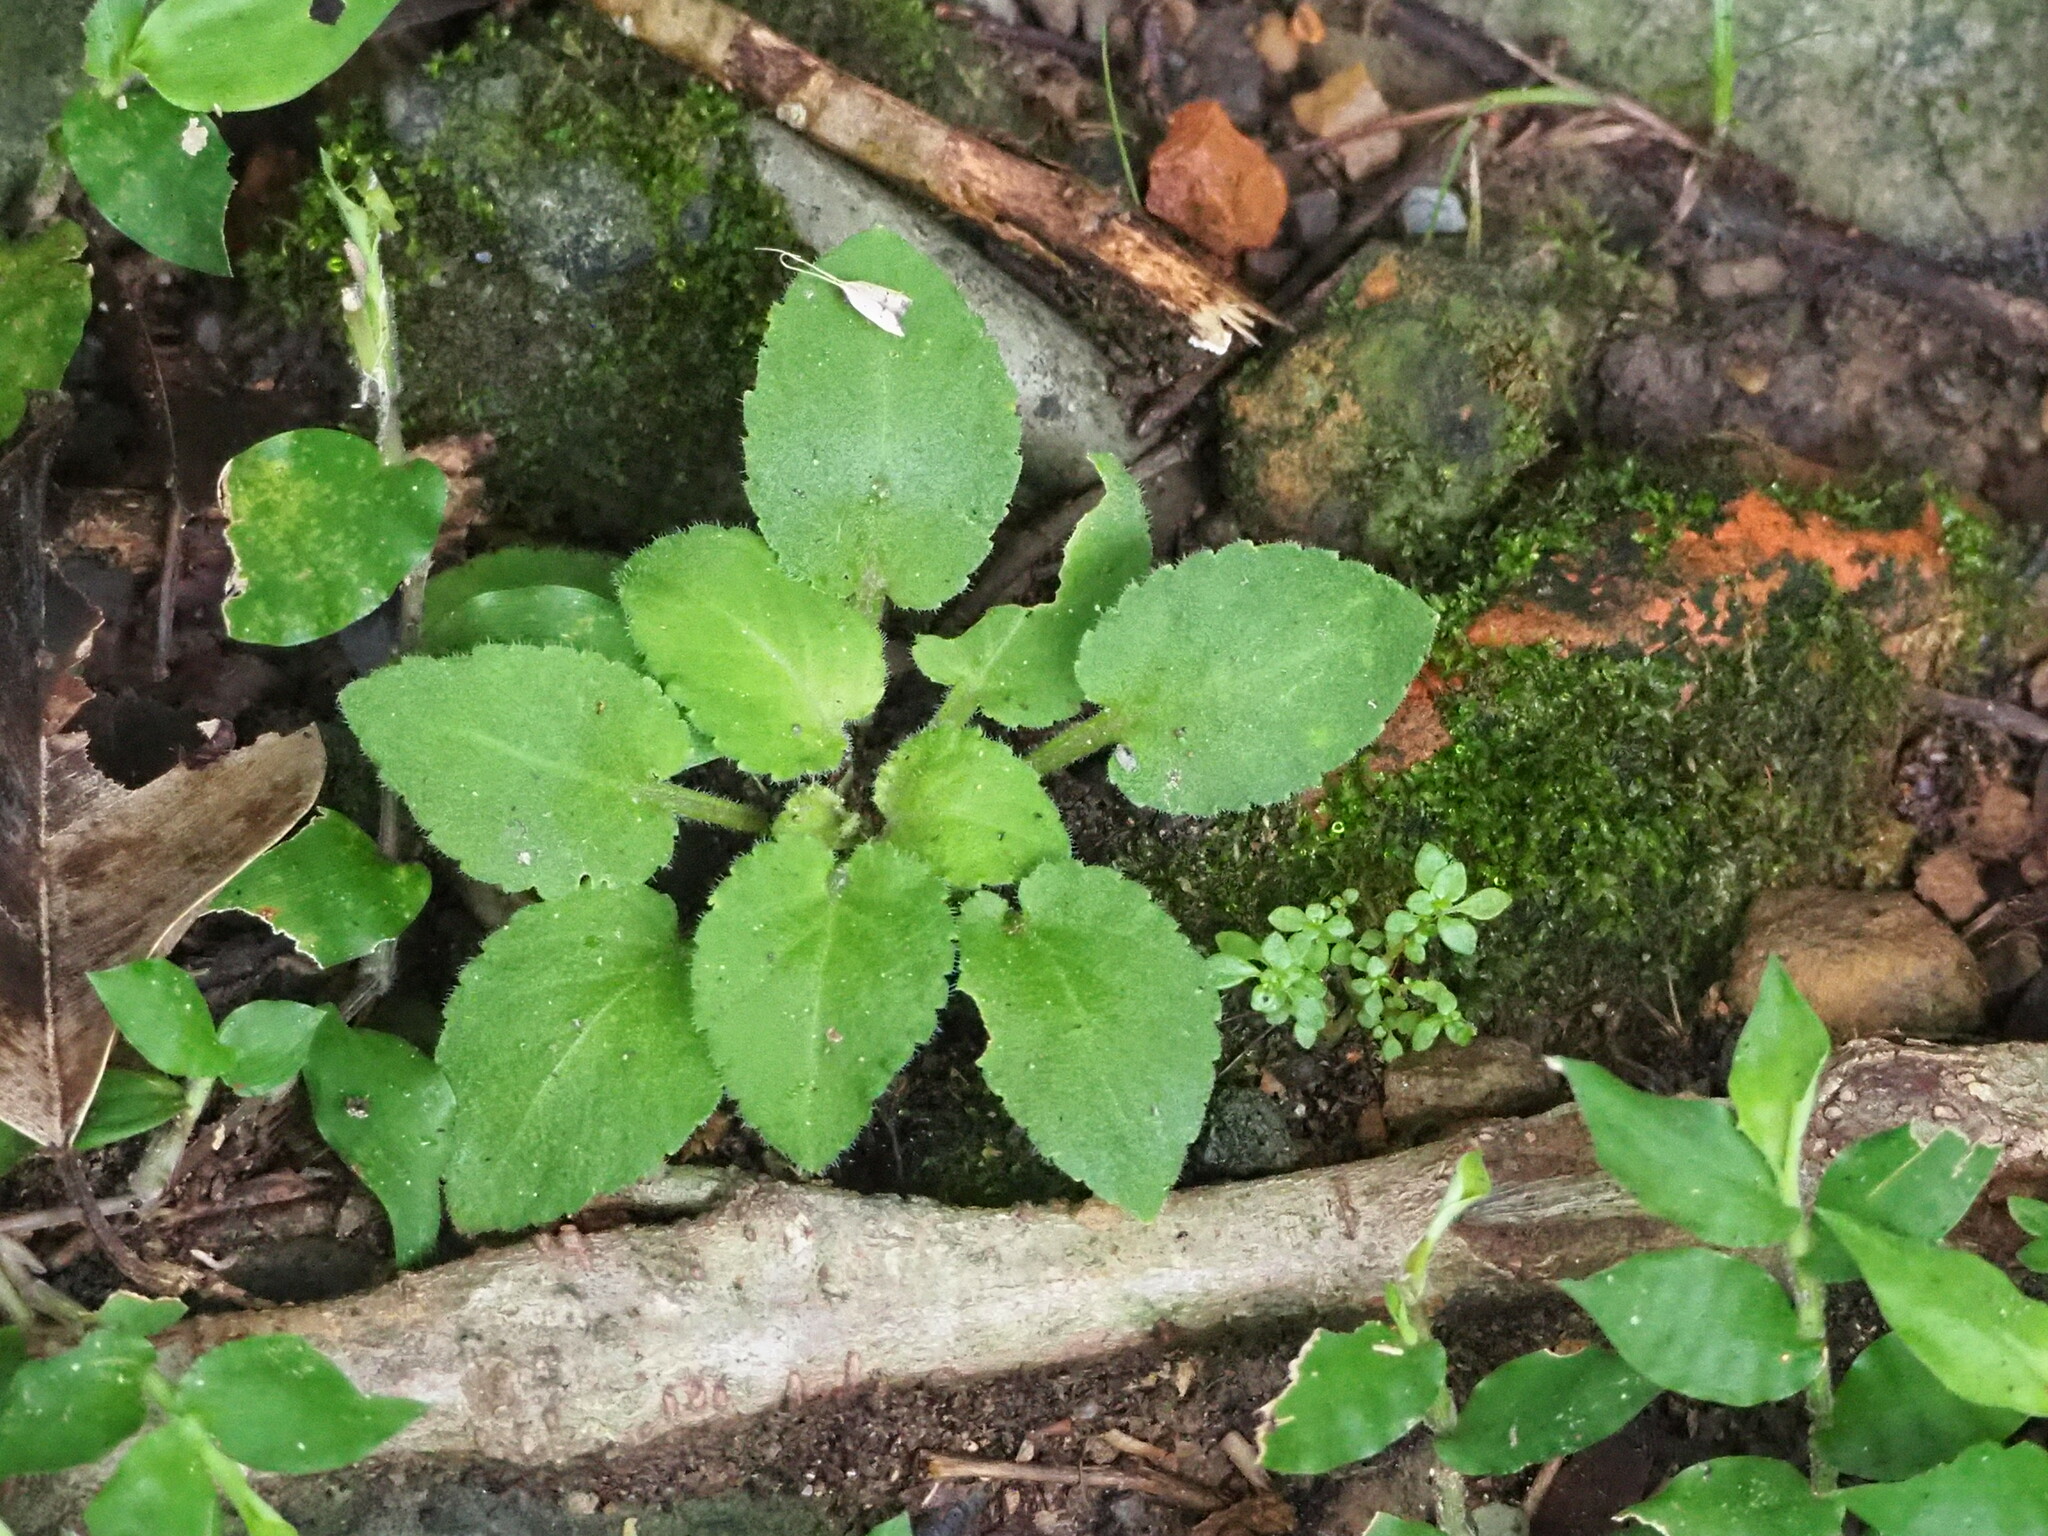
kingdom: Plantae
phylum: Tracheophyta
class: Magnoliopsida
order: Malpighiales
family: Violaceae
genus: Viola
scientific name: Viola diffusa
